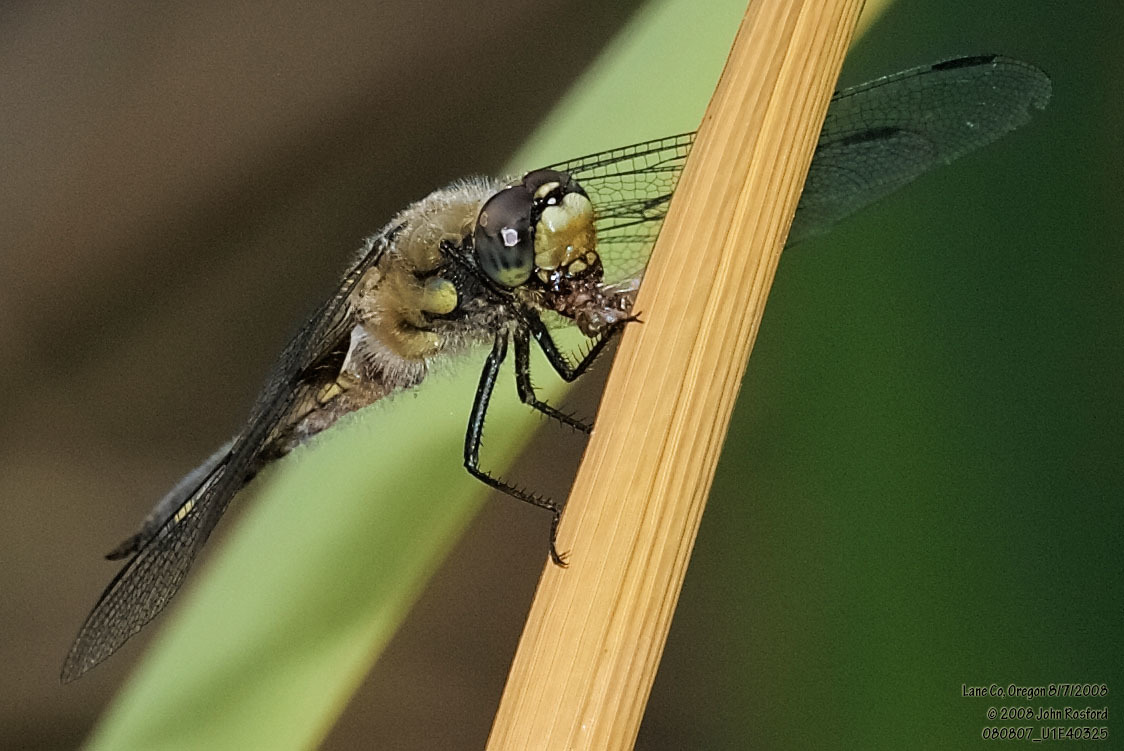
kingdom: Animalia
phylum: Arthropoda
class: Insecta
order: Odonata
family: Libellulidae
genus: Libellula
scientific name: Libellula quadrimaculata
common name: Four-spotted chaser
